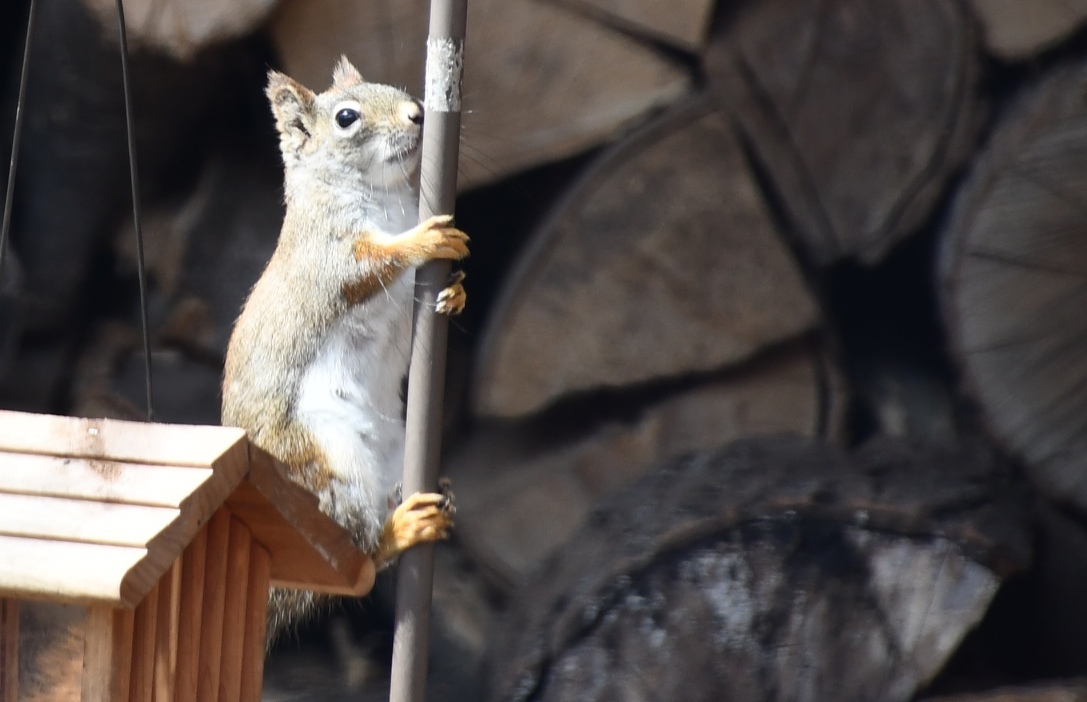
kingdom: Animalia
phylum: Chordata
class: Mammalia
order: Rodentia
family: Sciuridae
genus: Tamiasciurus
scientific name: Tamiasciurus hudsonicus
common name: Red squirrel
